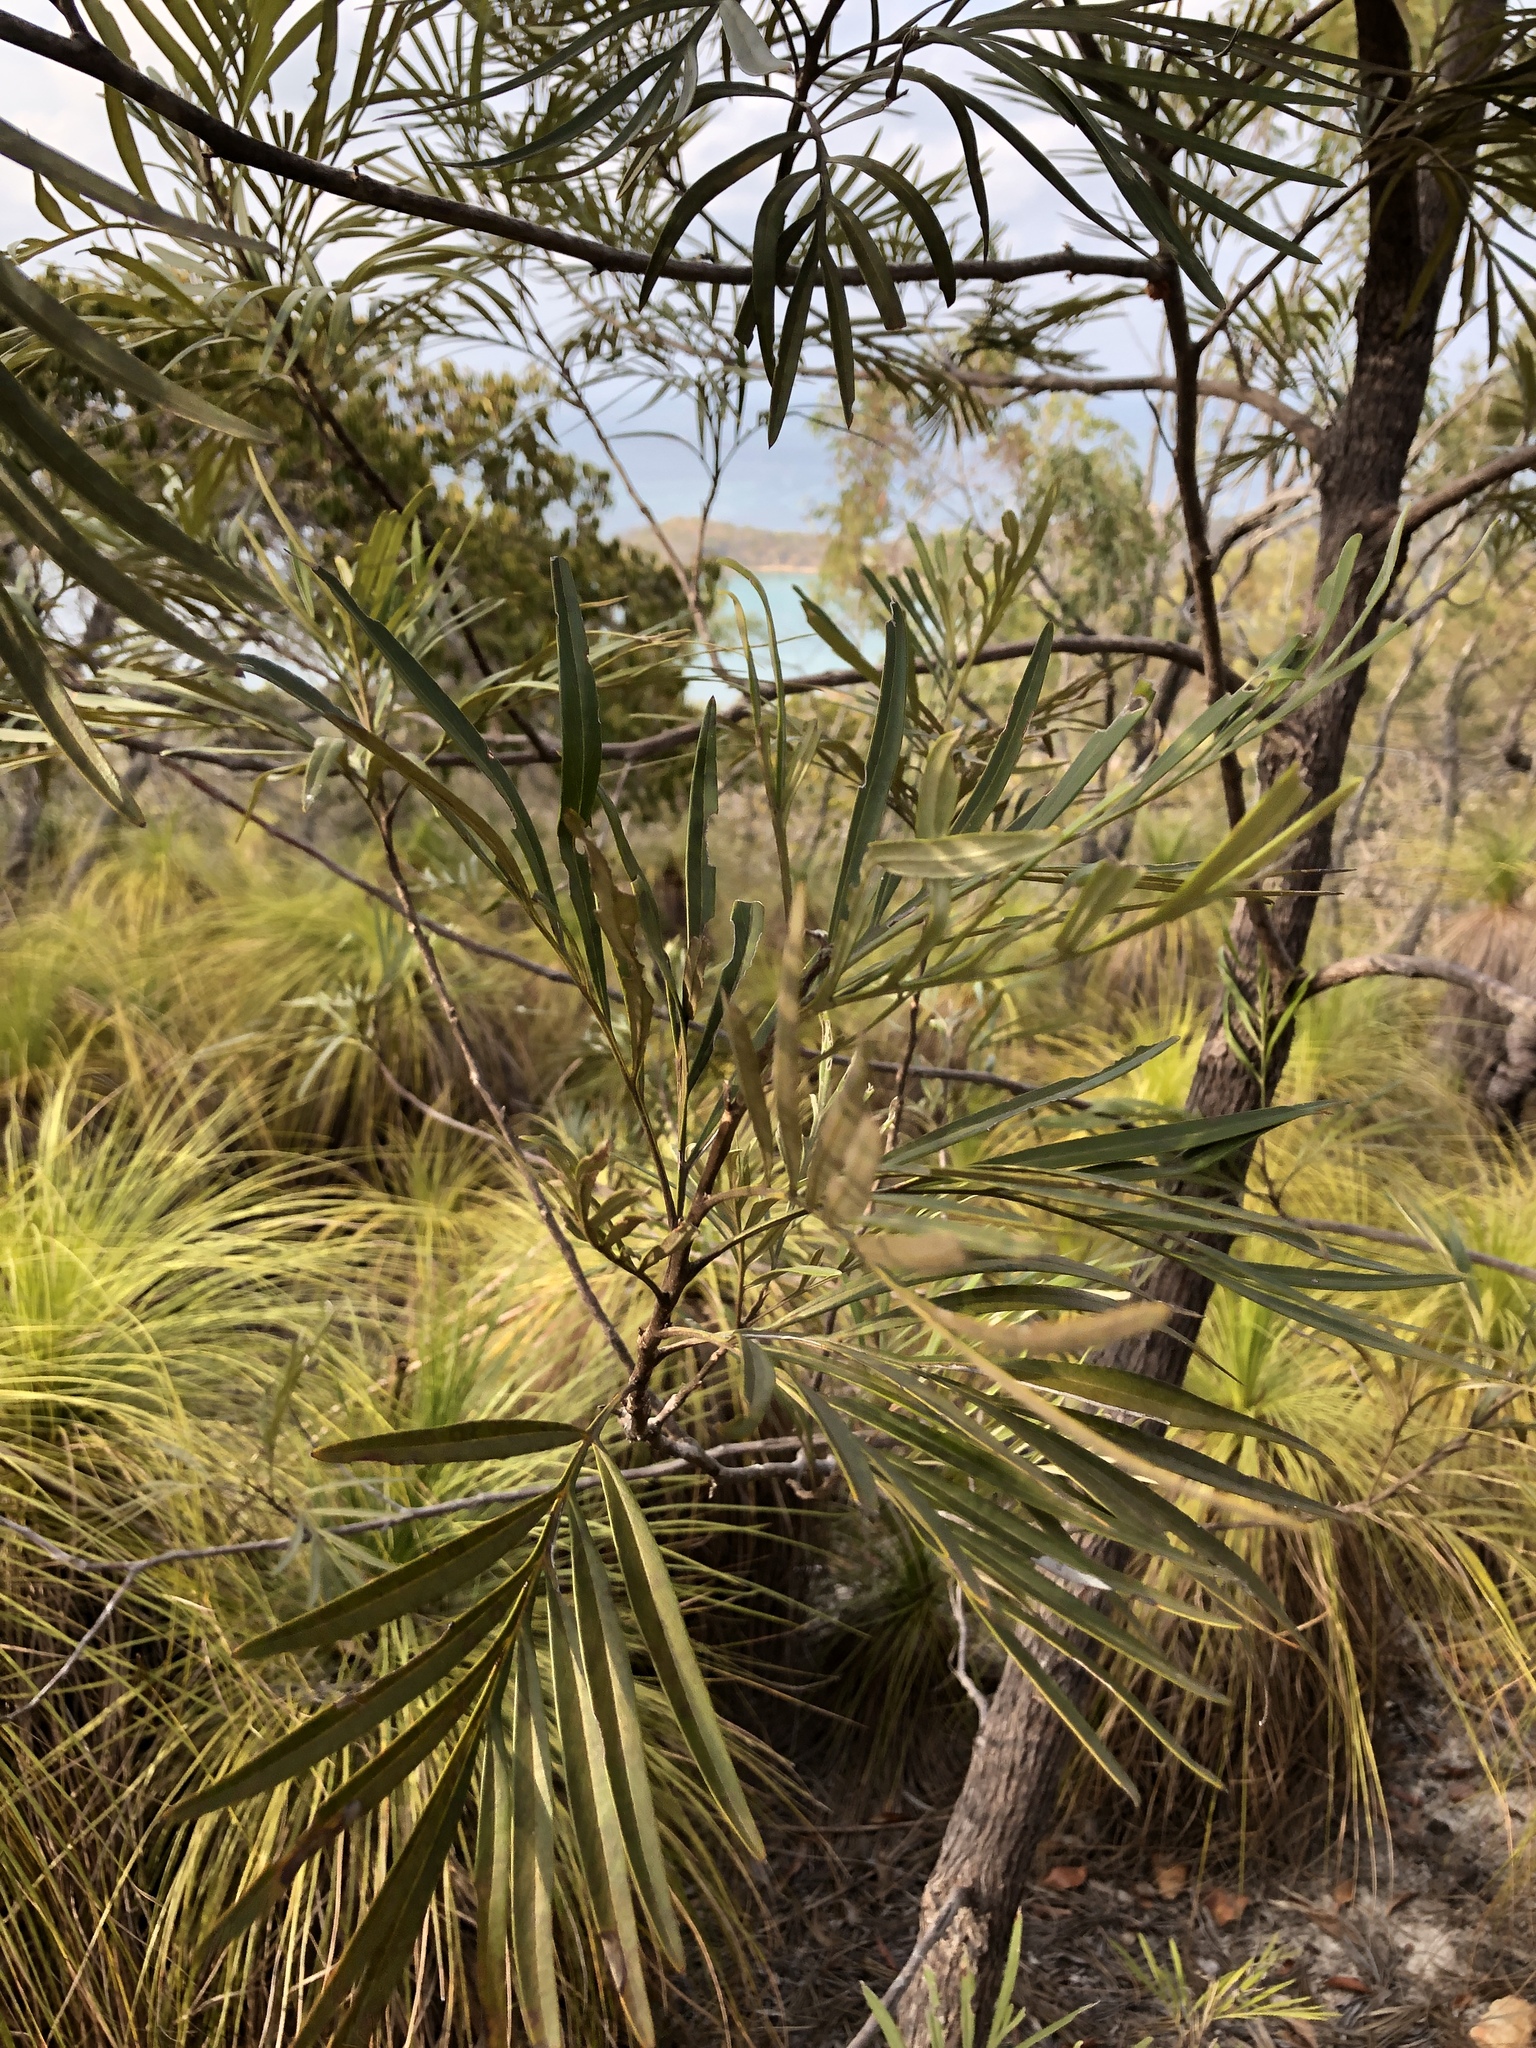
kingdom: Plantae
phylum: Tracheophyta
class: Magnoliopsida
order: Proteales
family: Proteaceae
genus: Grevillea
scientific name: Grevillea banksii
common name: Kahili flower
